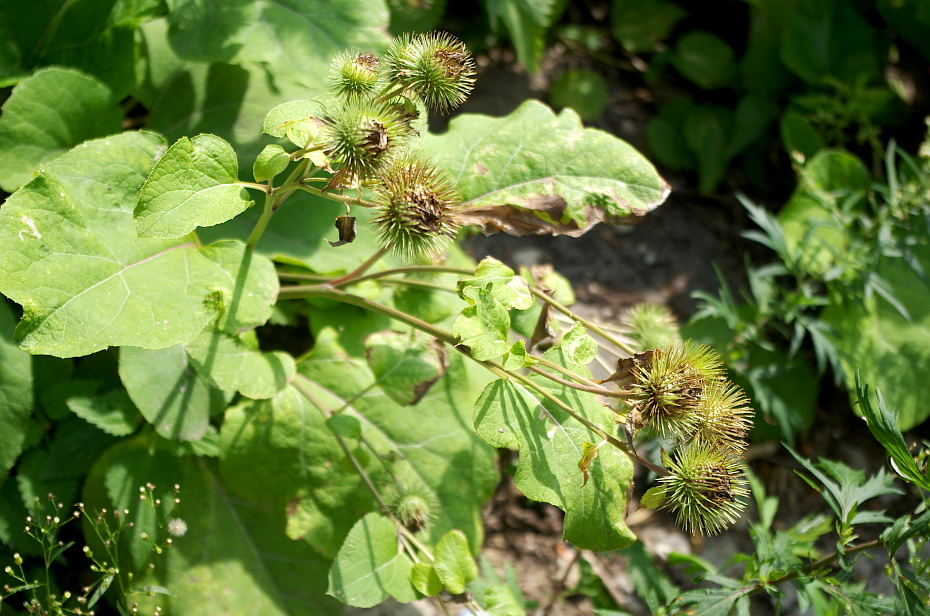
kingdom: Plantae
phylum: Tracheophyta
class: Magnoliopsida
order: Asterales
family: Asteraceae
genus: Arctium
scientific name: Arctium lappa
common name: Greater burdock
